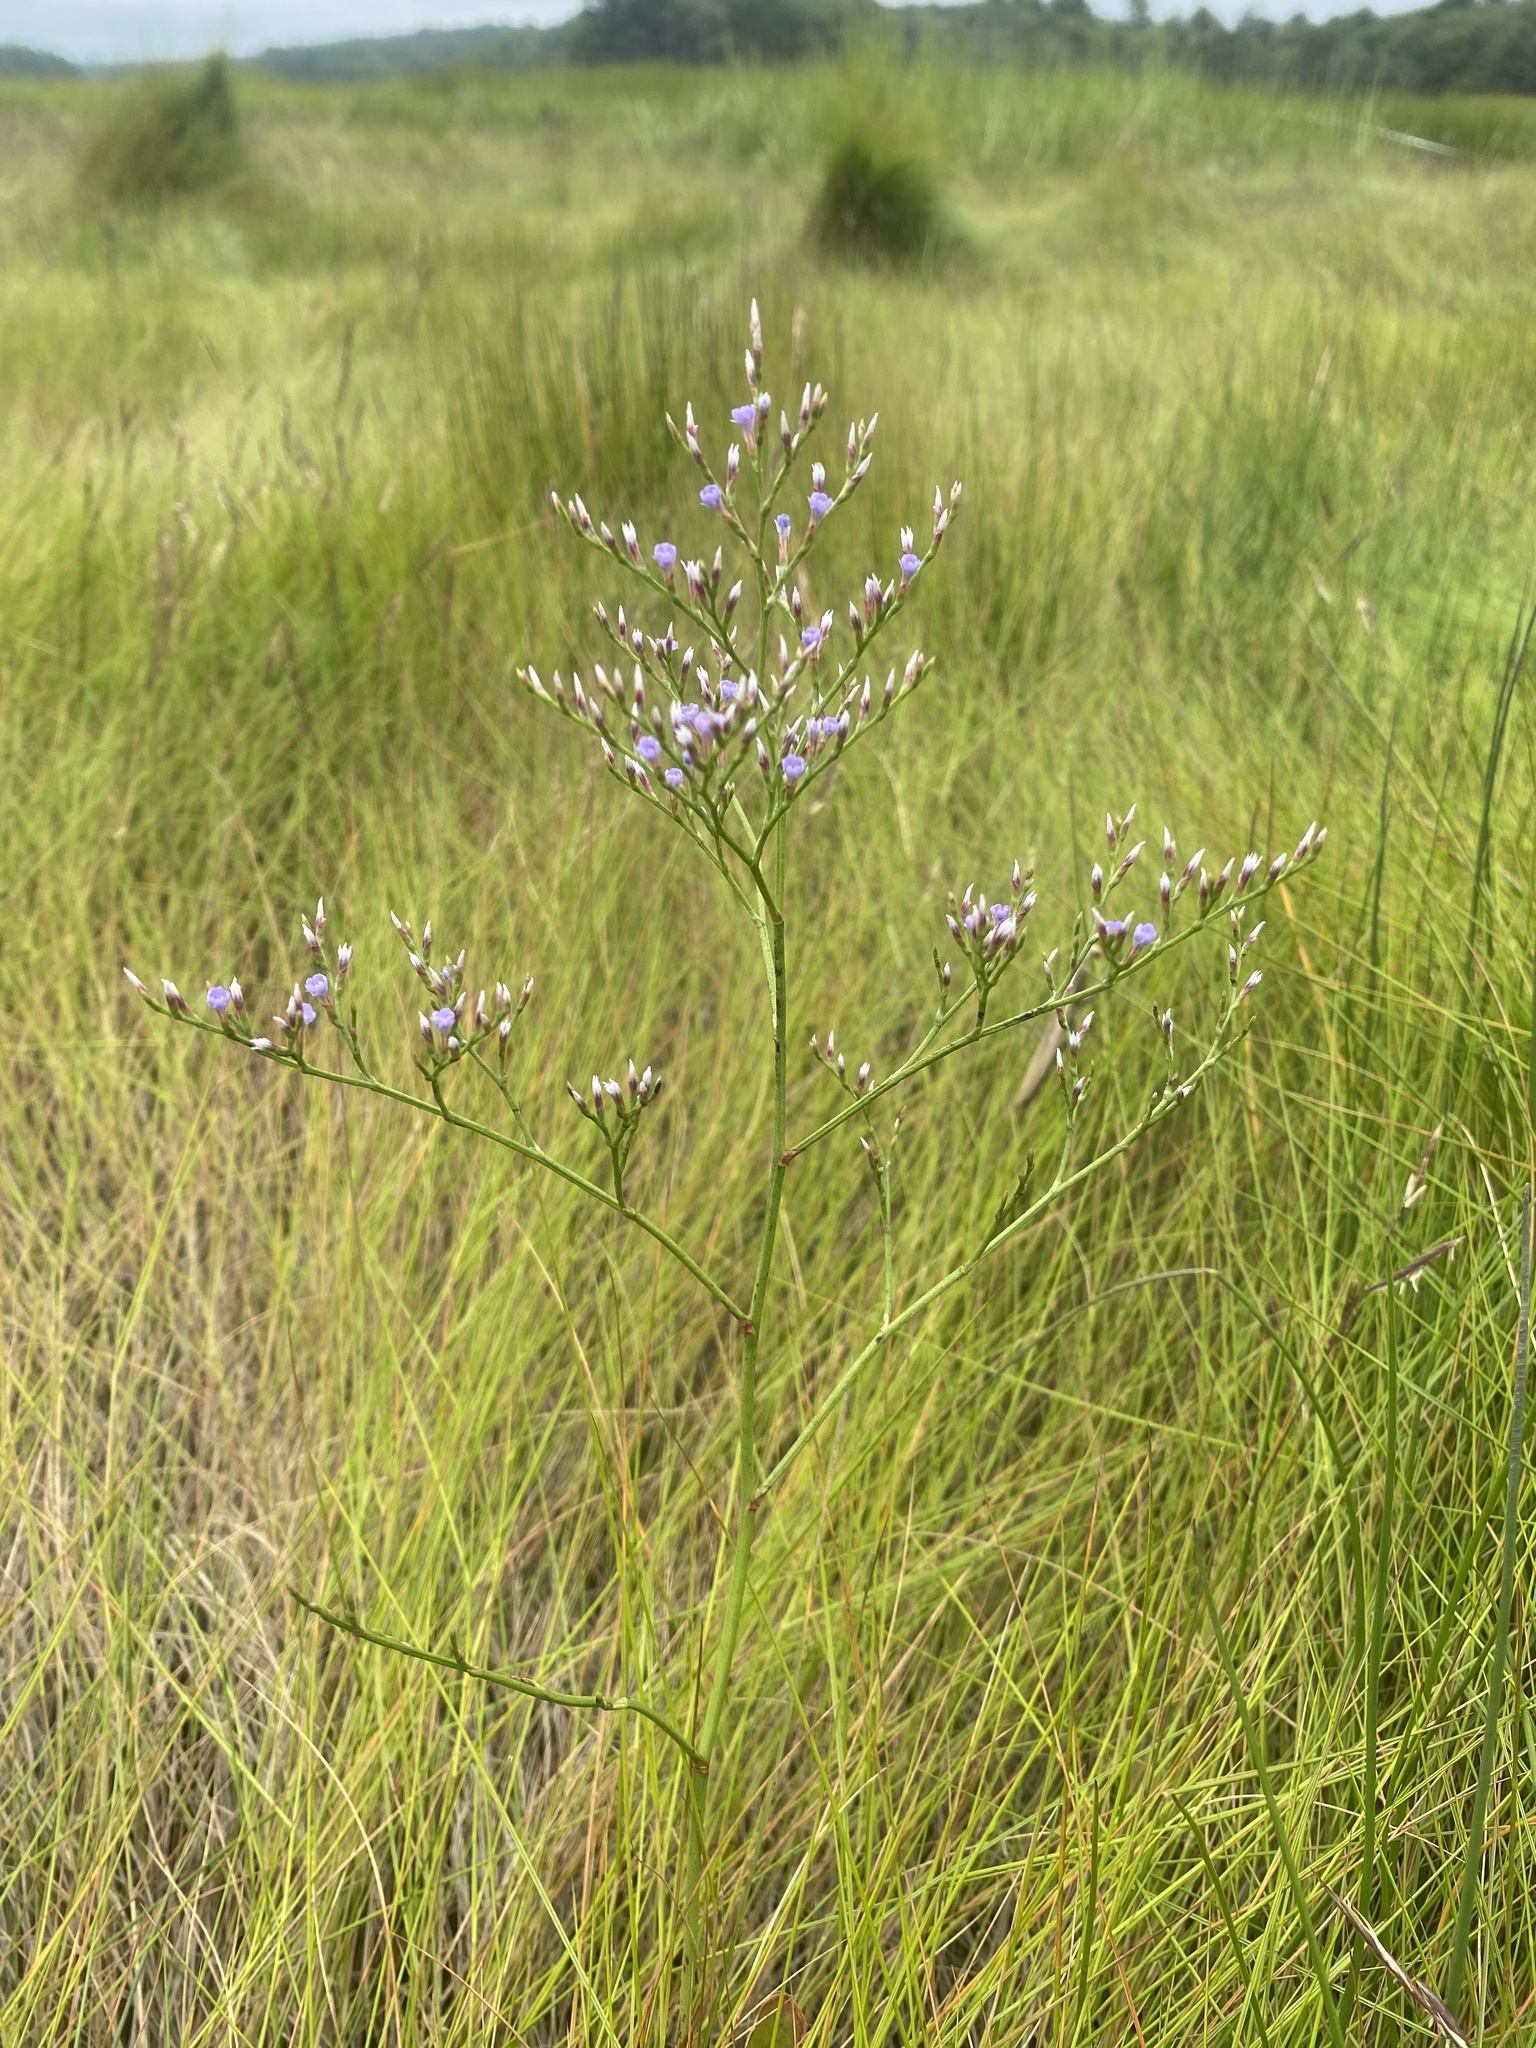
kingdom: Plantae
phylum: Tracheophyta
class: Magnoliopsida
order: Caryophyllales
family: Plumbaginaceae
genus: Limonium
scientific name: Limonium carolinianum
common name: Carolina sea lavender
